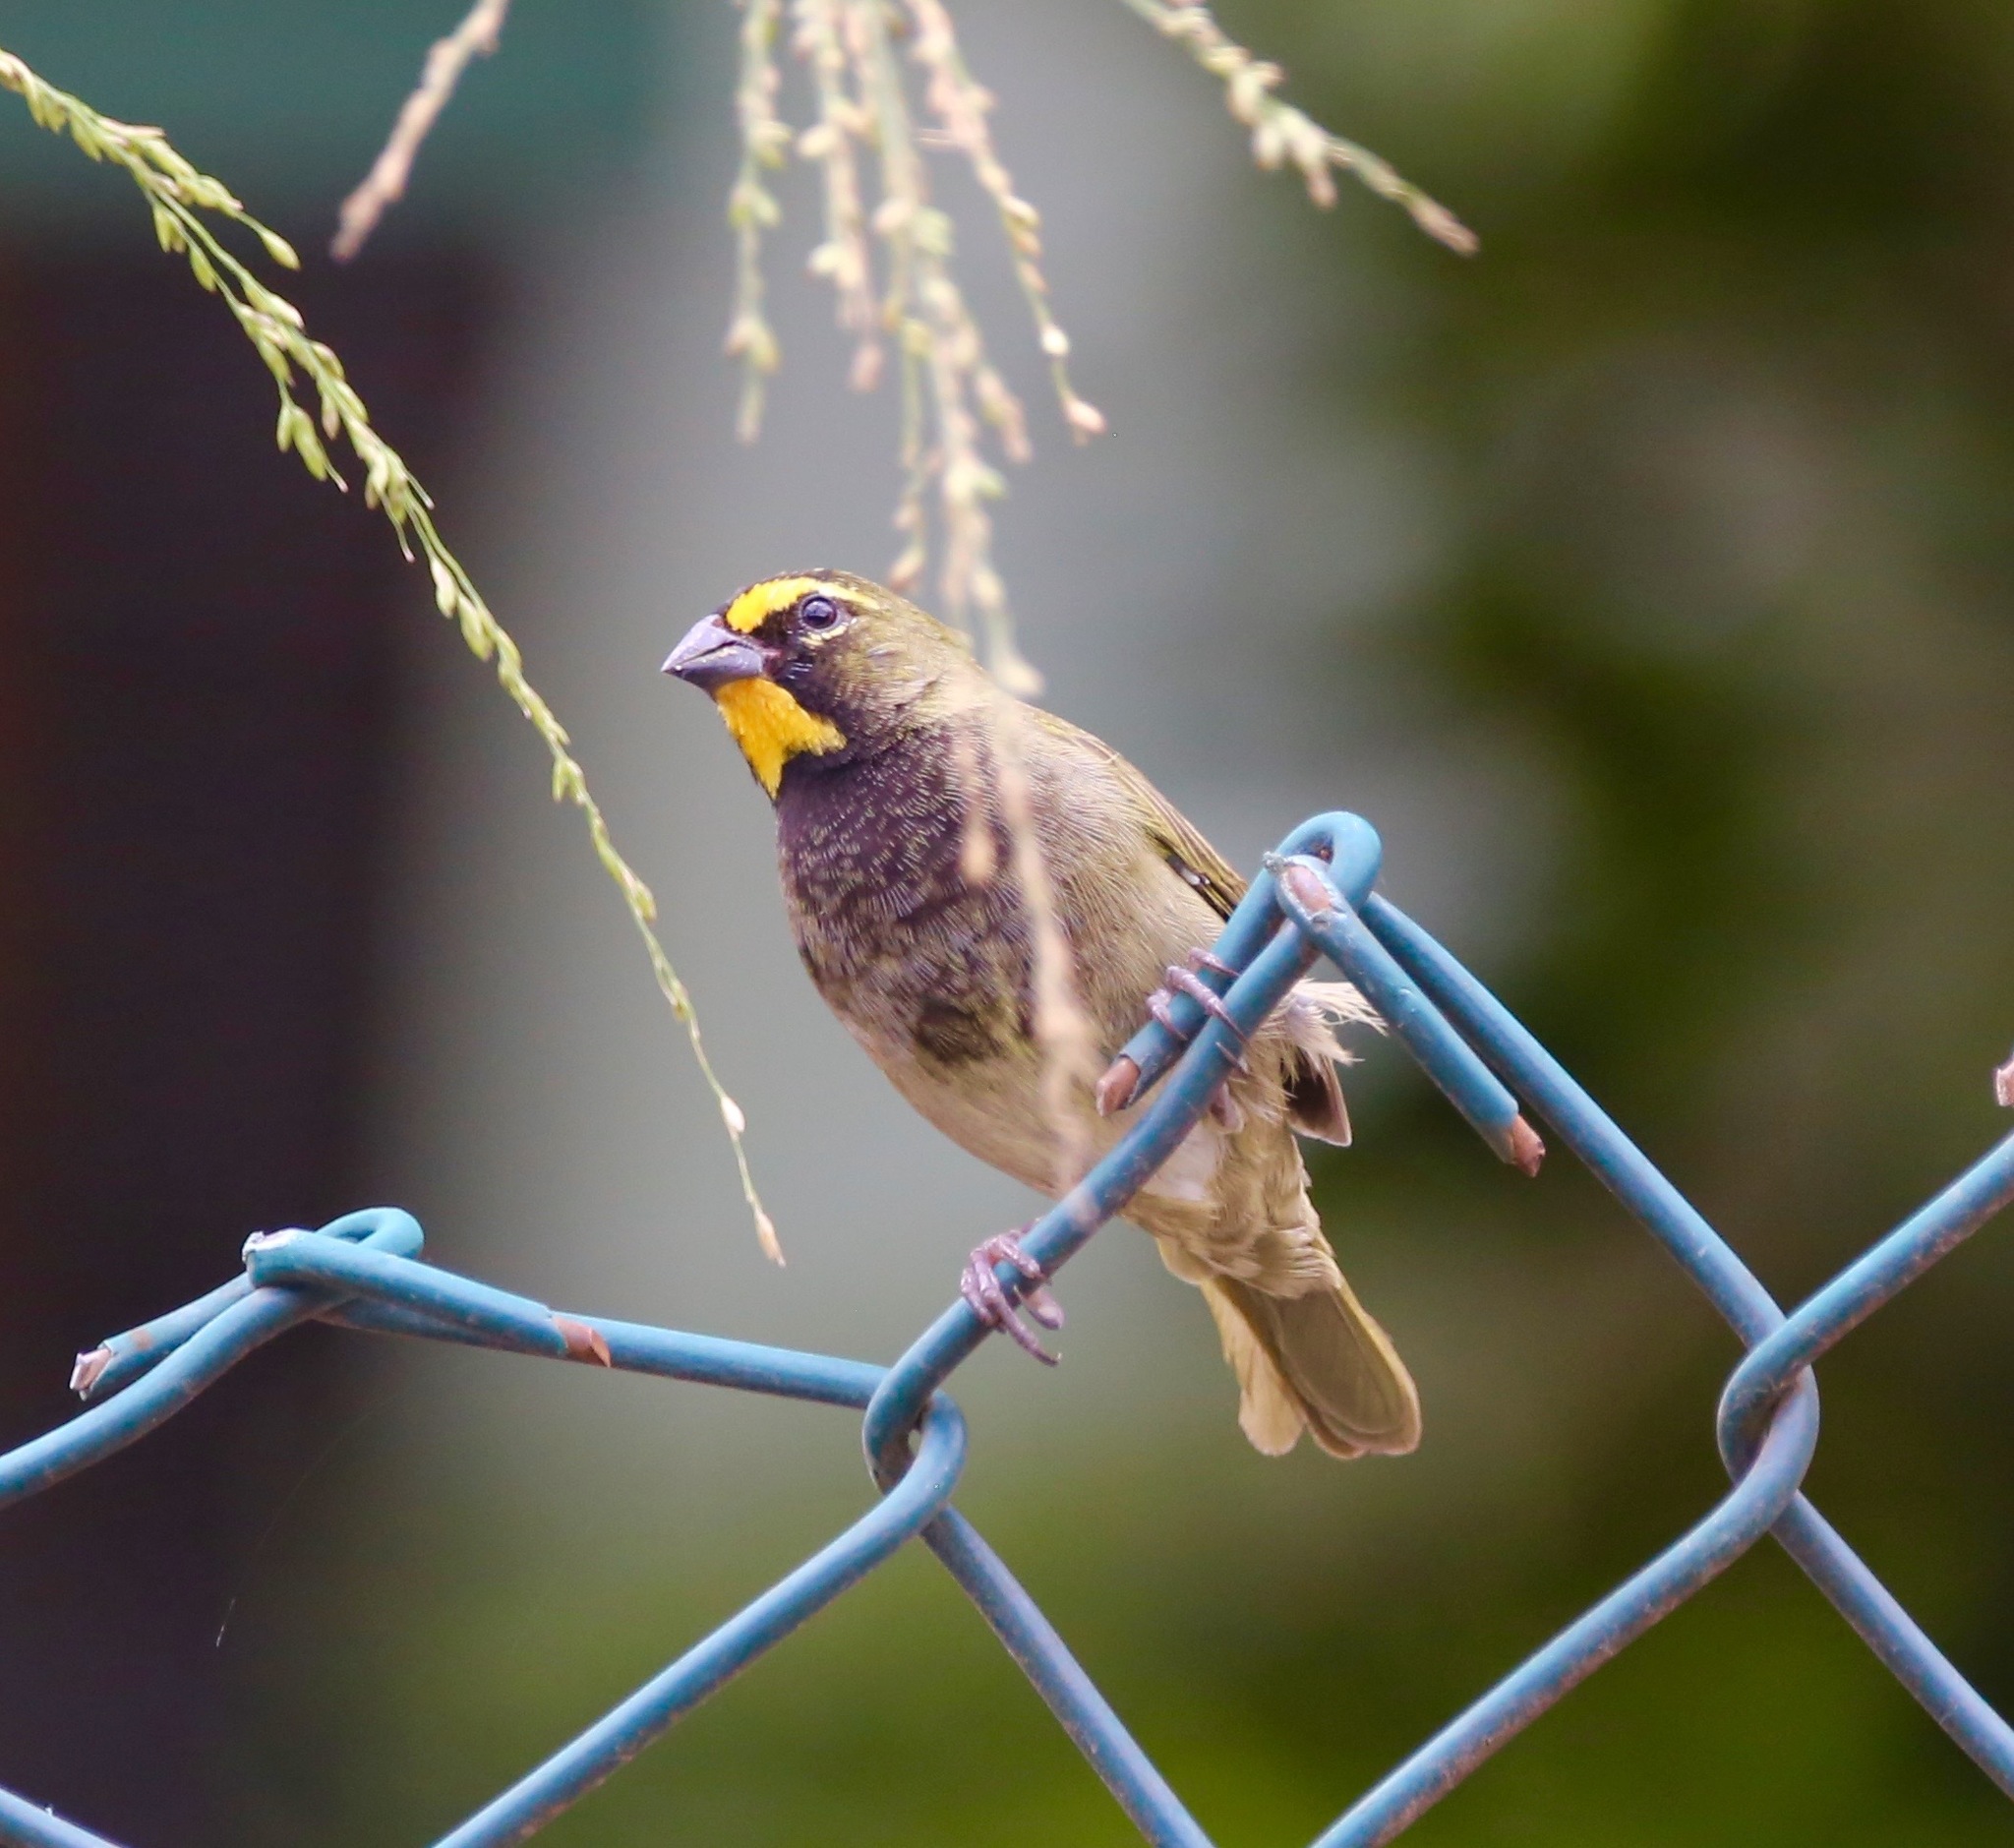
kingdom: Animalia
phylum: Chordata
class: Aves
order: Passeriformes
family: Thraupidae
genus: Tiaris
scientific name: Tiaris olivaceus
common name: Yellow-faced grassquit
